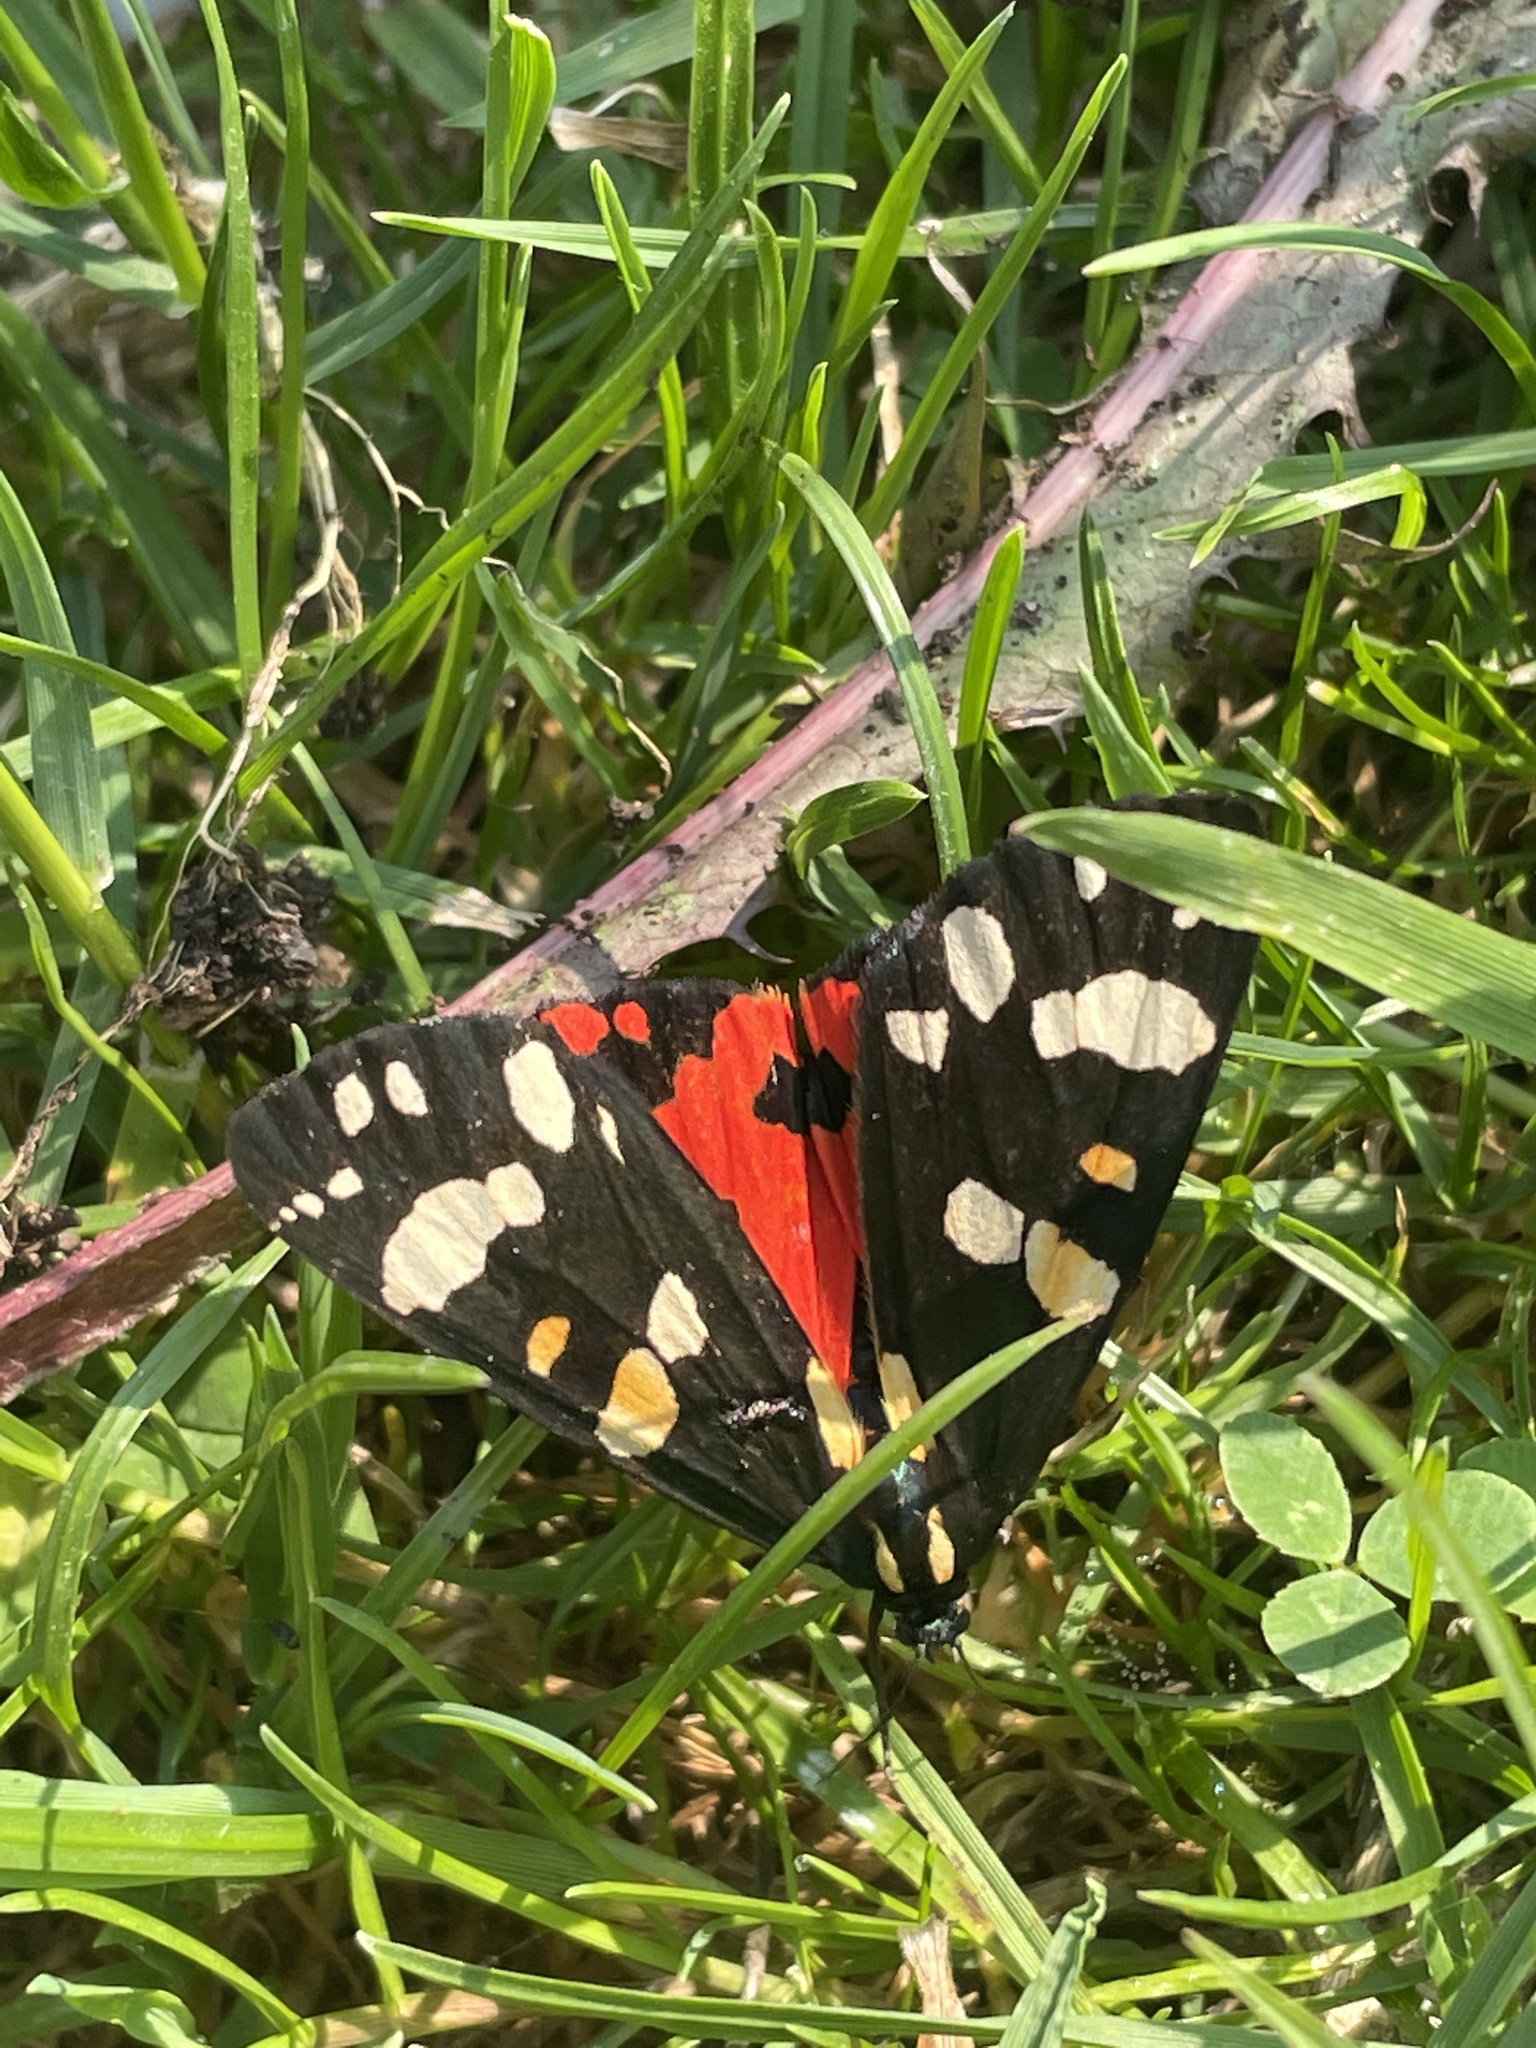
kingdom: Animalia
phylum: Arthropoda
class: Insecta
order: Lepidoptera
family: Erebidae
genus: Callimorpha
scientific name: Callimorpha dominula
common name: Scarlet tiger
